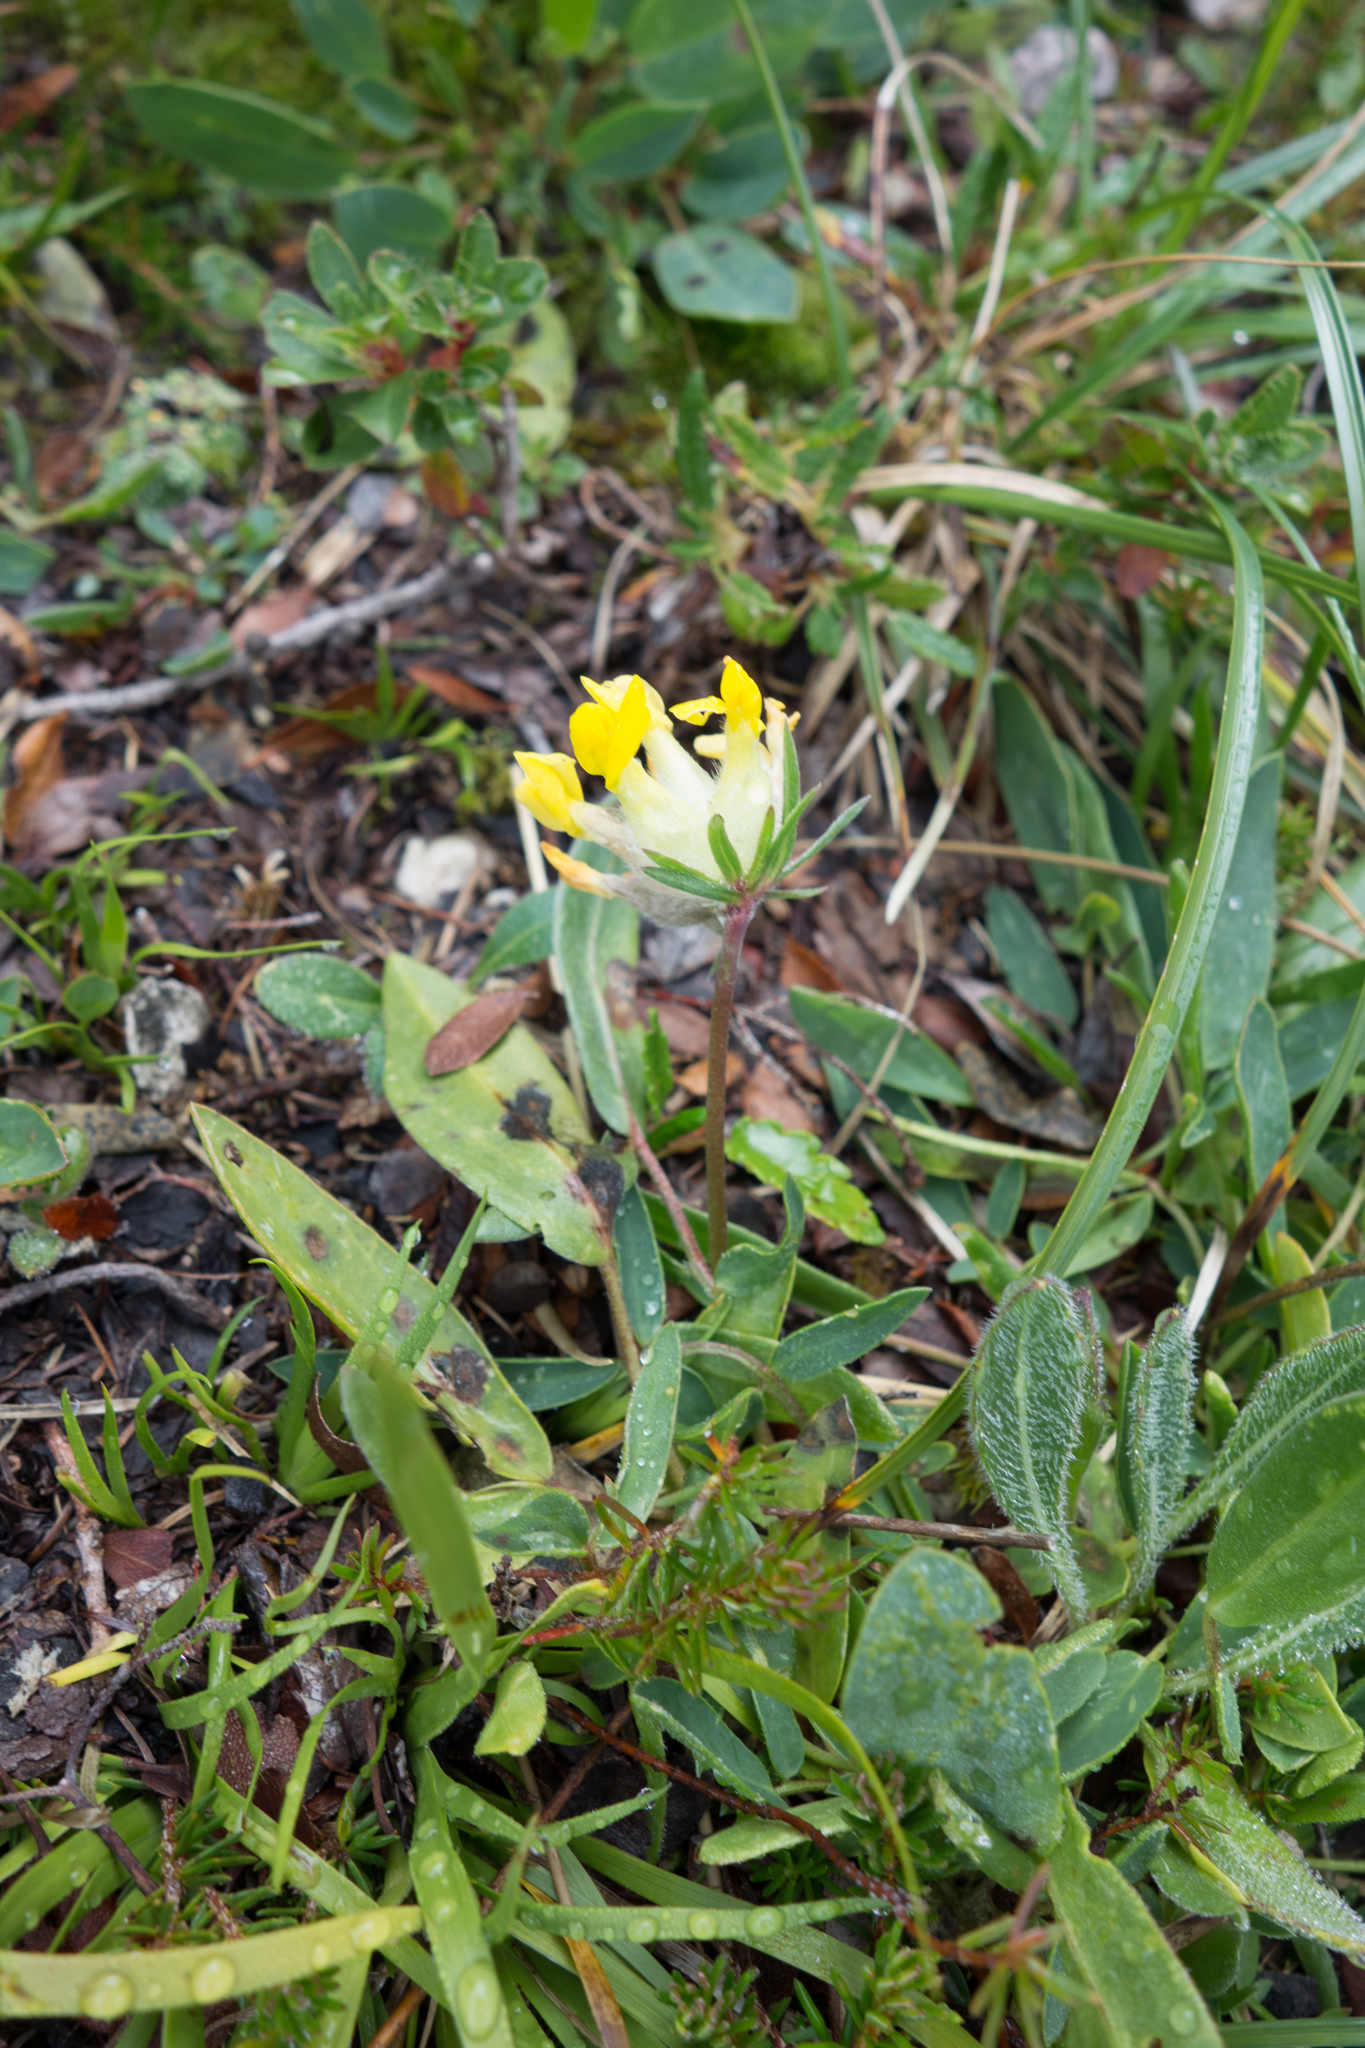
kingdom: Plantae
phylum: Tracheophyta
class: Magnoliopsida
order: Fabales
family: Fabaceae
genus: Anthyllis
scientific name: Anthyllis vulneraria
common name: Kidney vetch
